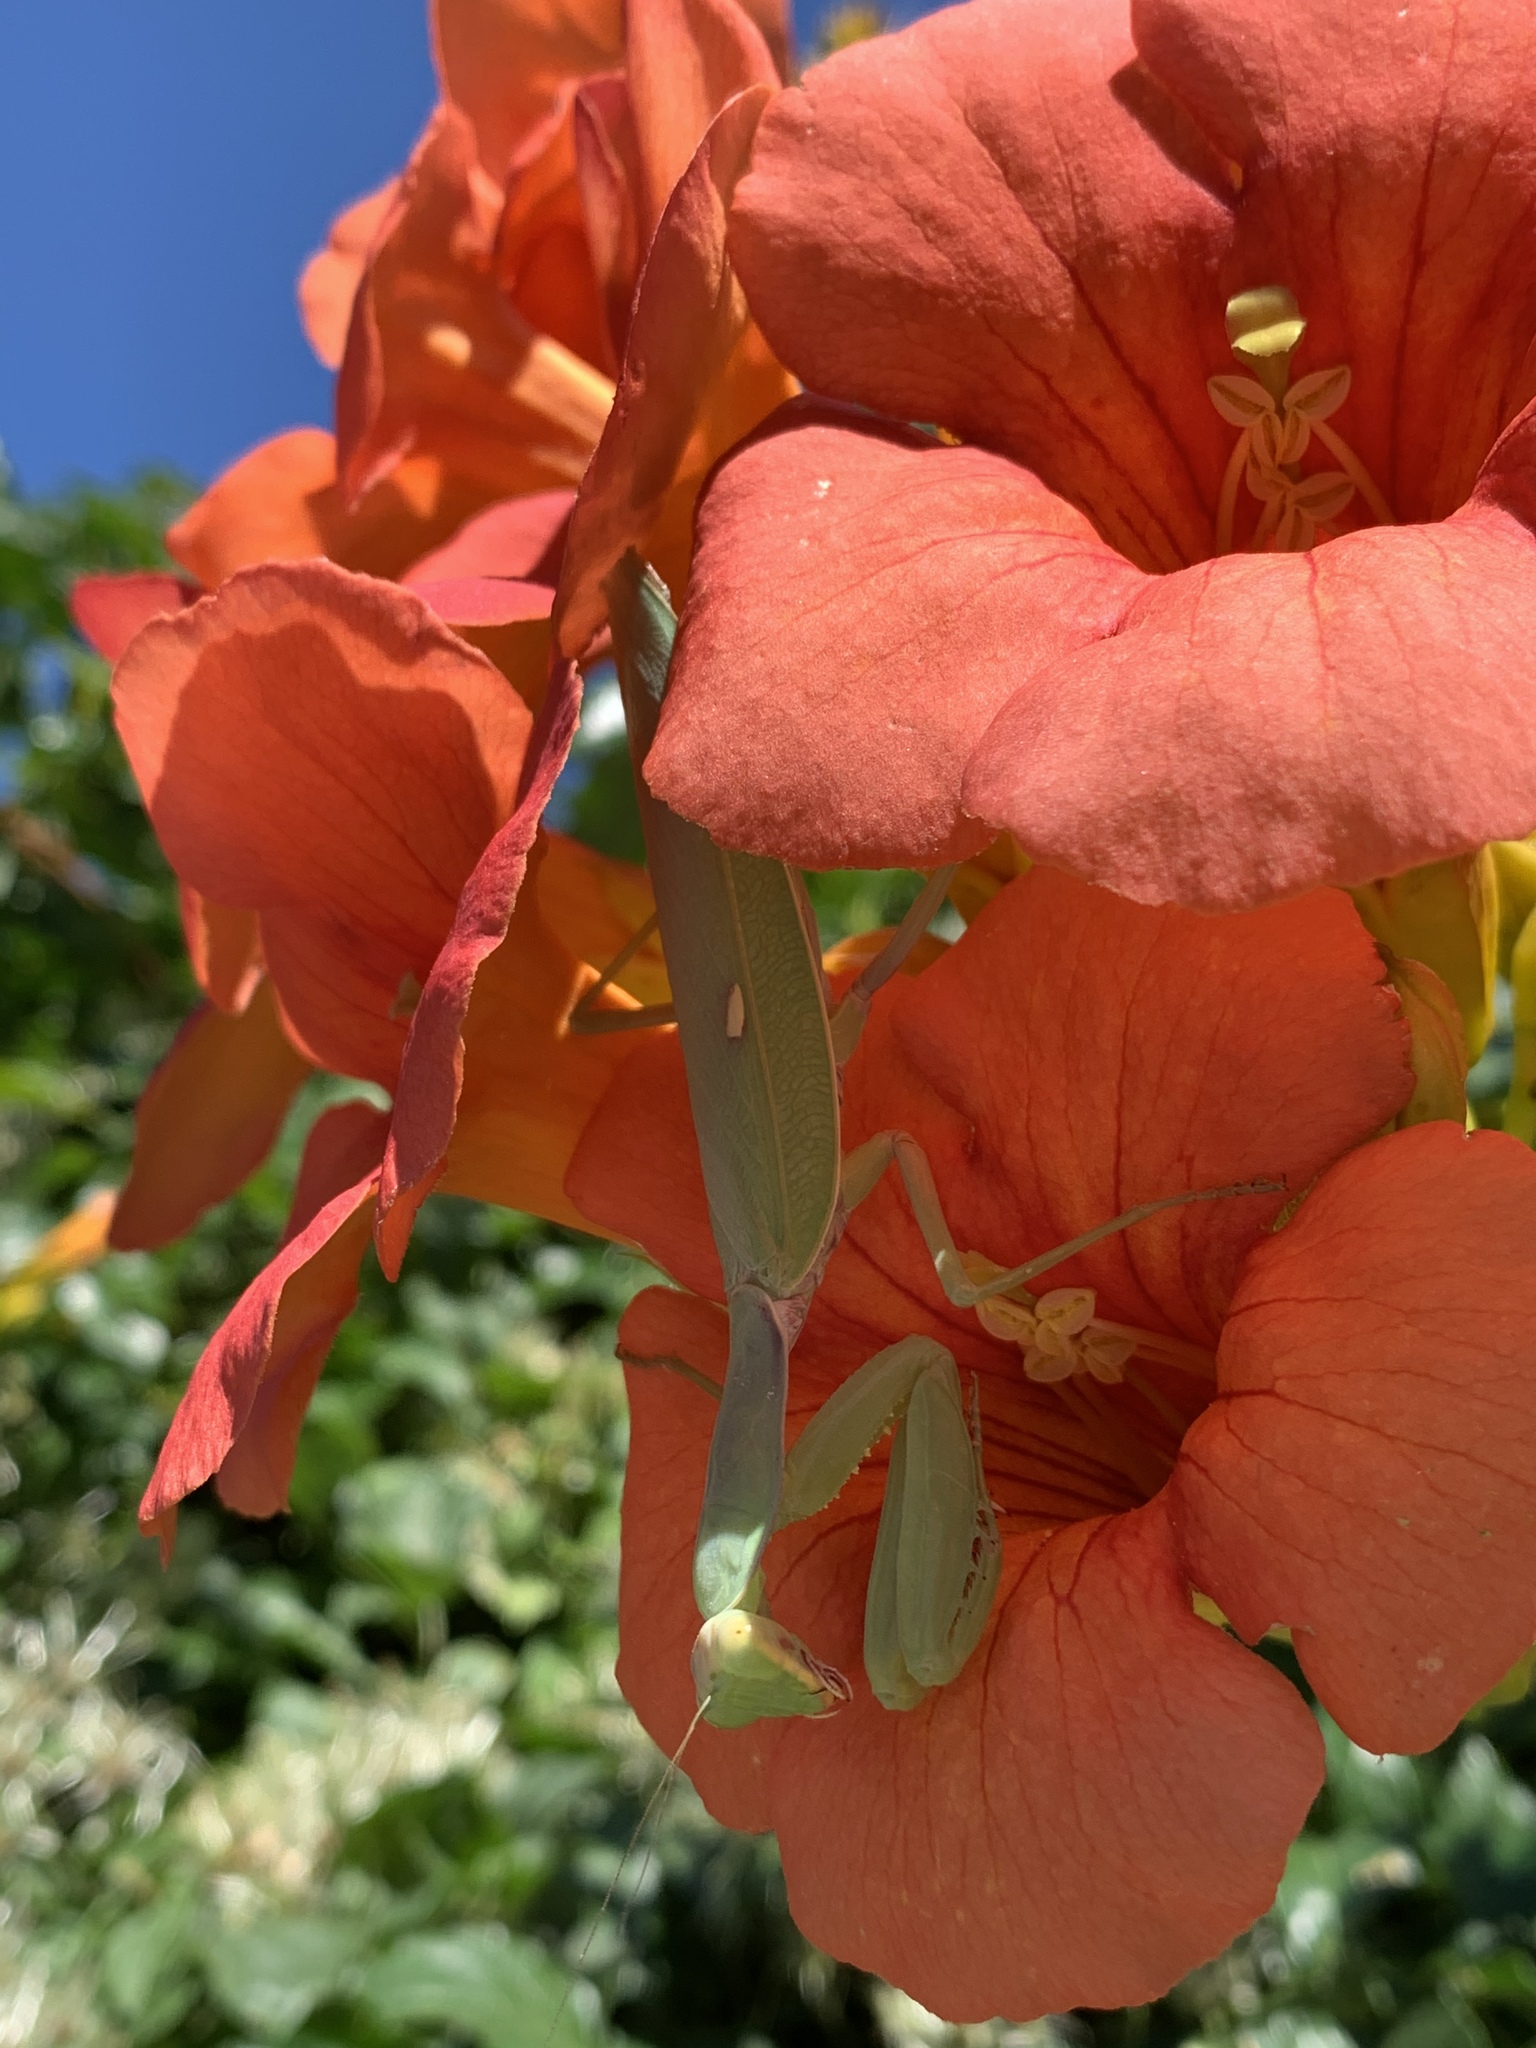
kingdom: Animalia
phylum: Arthropoda
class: Insecta
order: Mantodea
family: Mantidae
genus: Hierodula
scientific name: Hierodula transcaucasica
